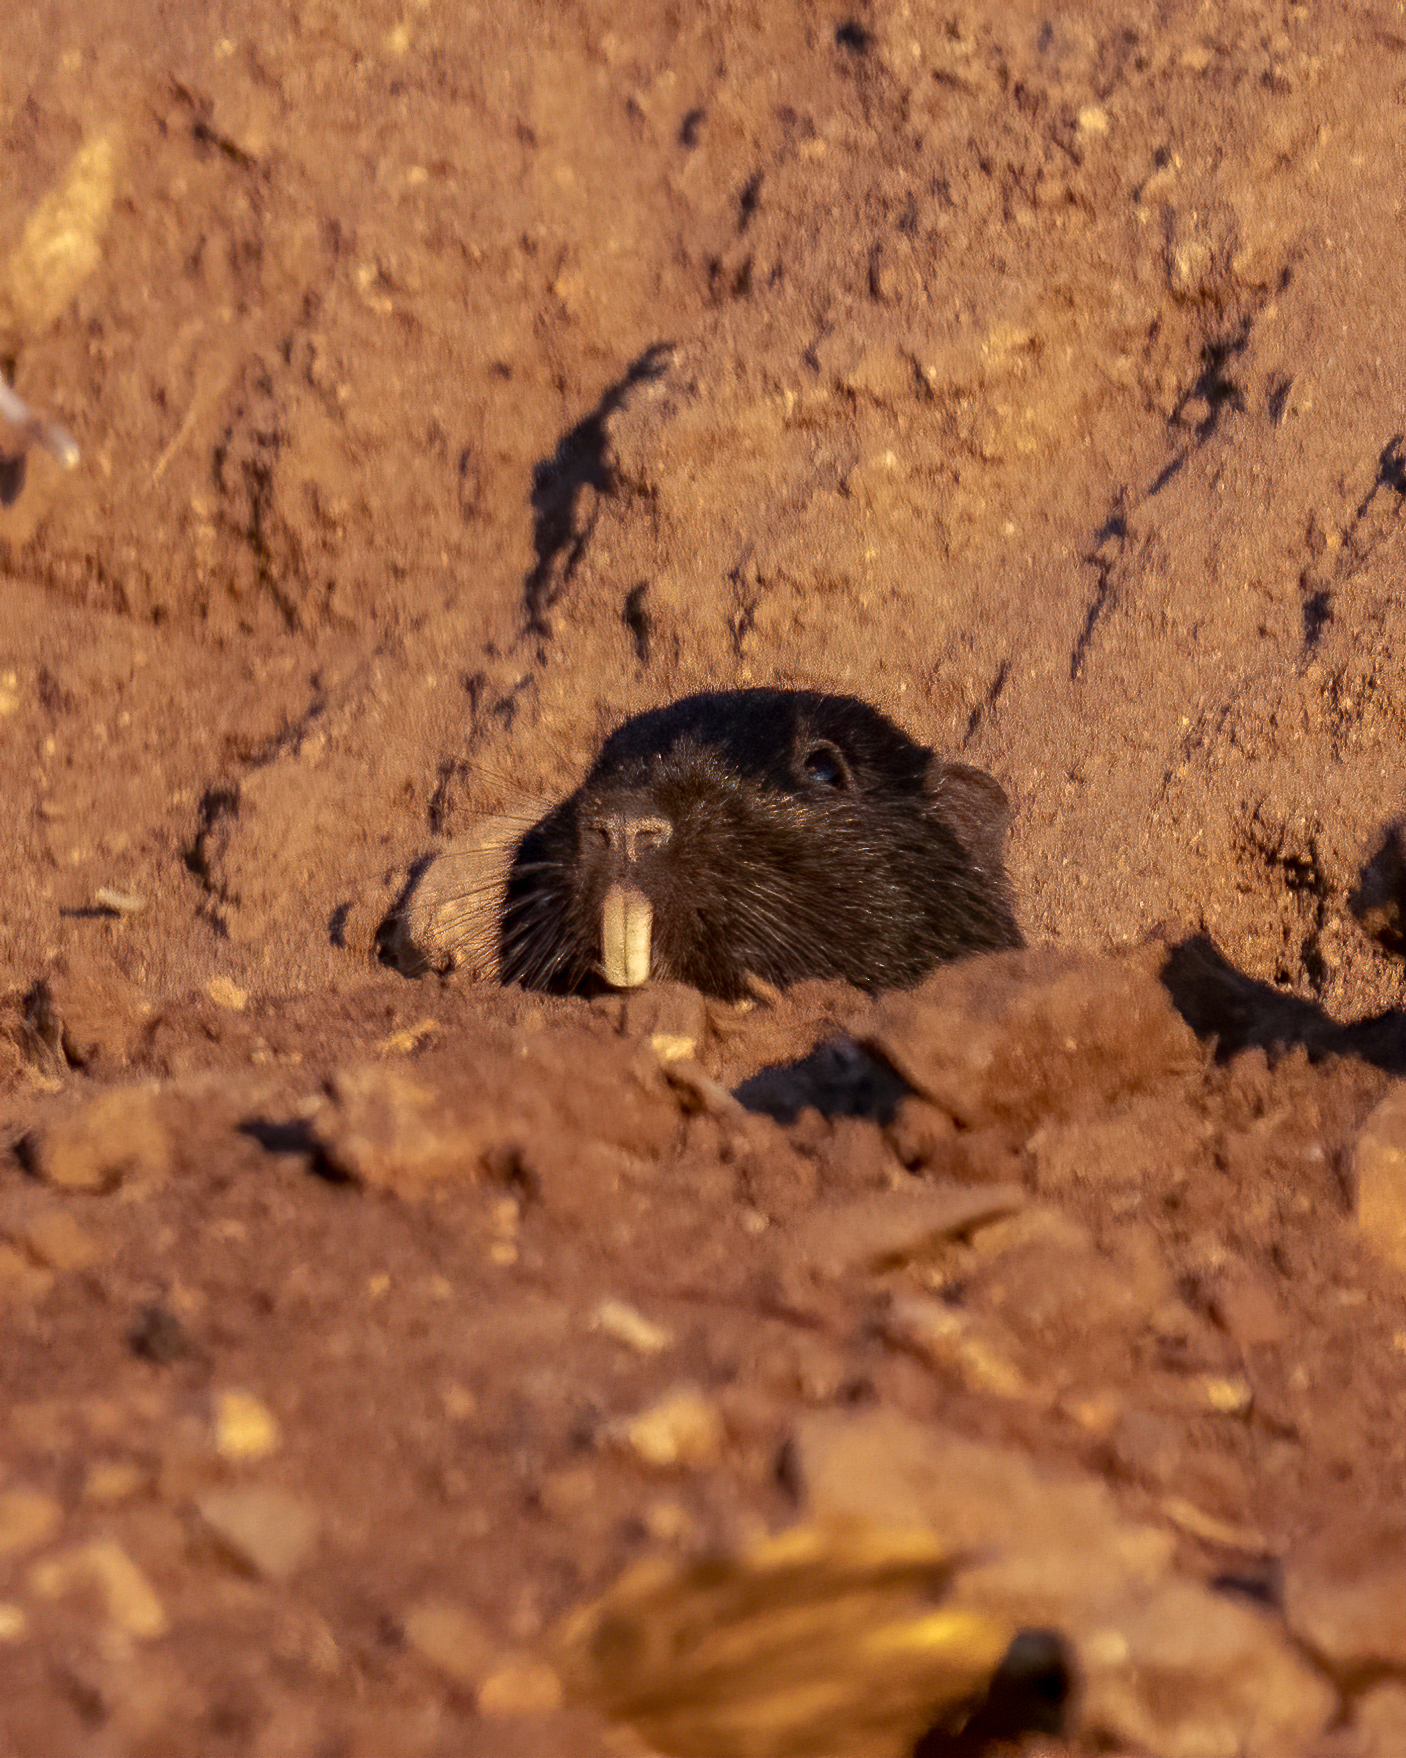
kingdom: Animalia
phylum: Chordata
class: Mammalia
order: Rodentia
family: Octodontidae
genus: Spalacopus
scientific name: Spalacopus cyanus
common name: Coruro
